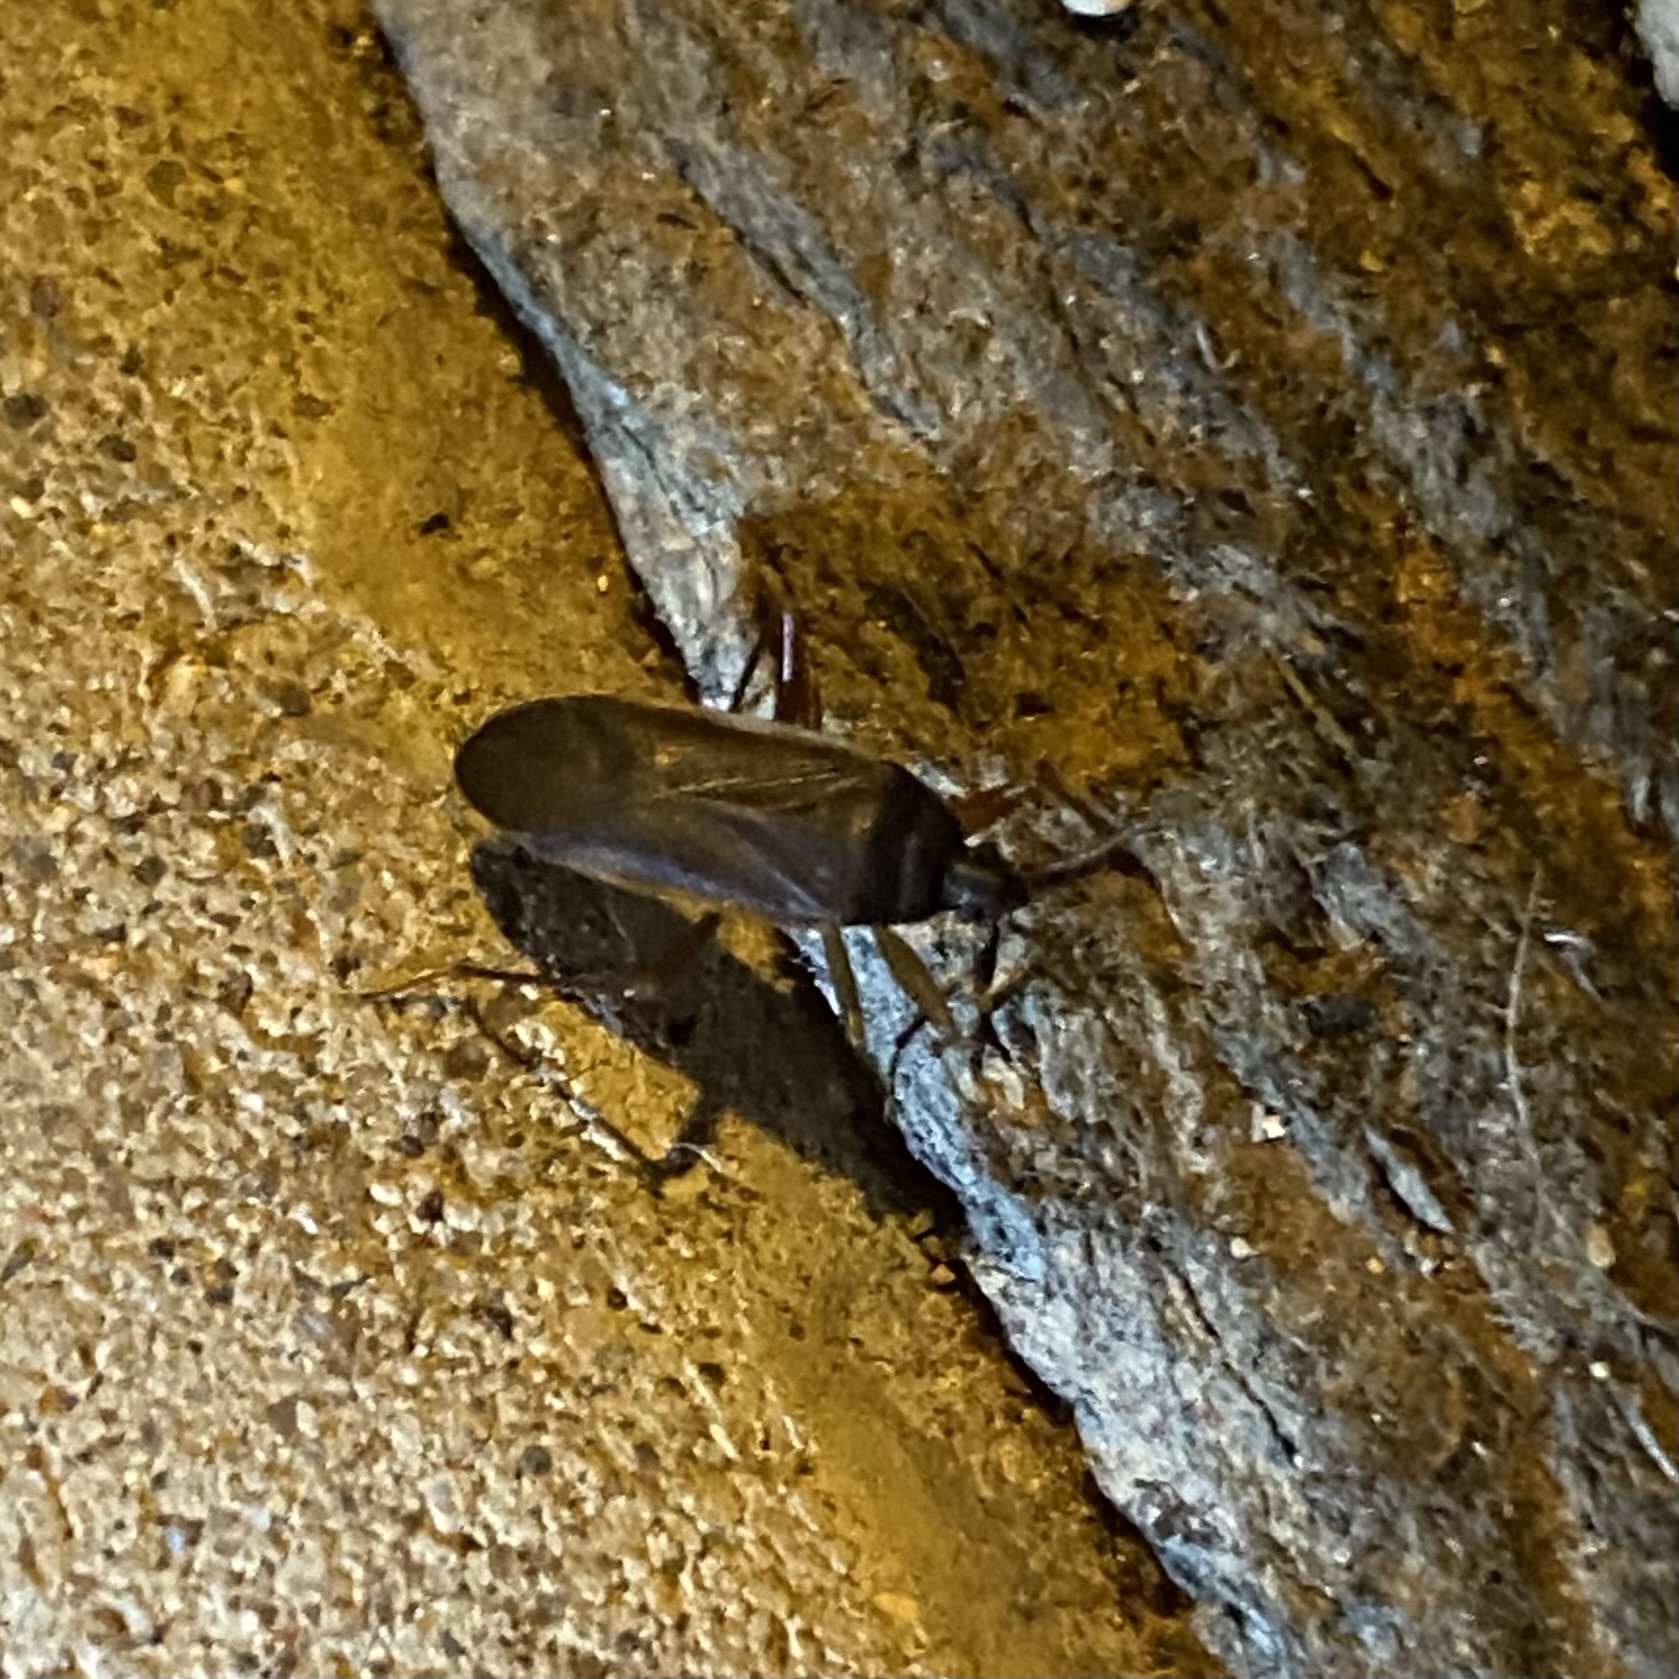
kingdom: Animalia
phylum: Arthropoda
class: Insecta
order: Hemiptera
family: Rhyparochromidae
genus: Balboa
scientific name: Balboa ampliata
